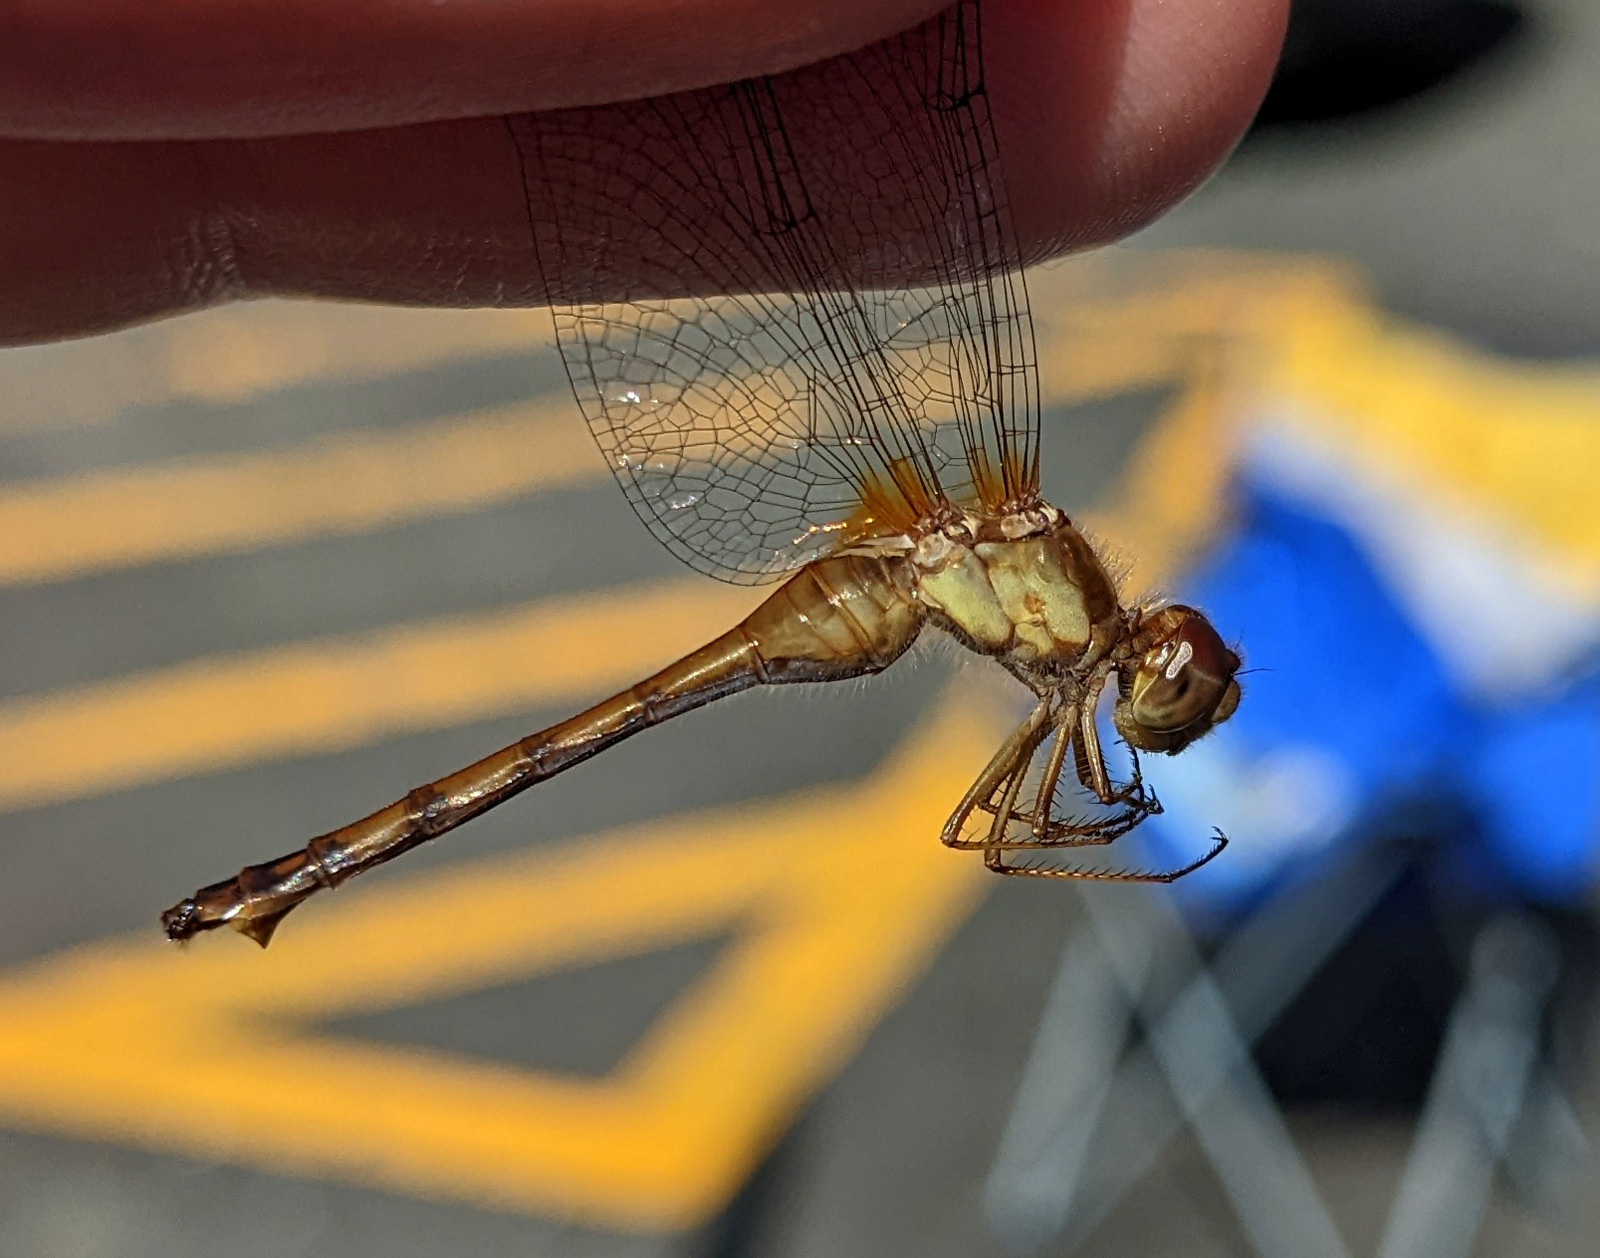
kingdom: Animalia
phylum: Arthropoda
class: Insecta
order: Odonata
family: Libellulidae
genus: Sympetrum
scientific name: Sympetrum vicinum
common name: Autumn meadowhawk
